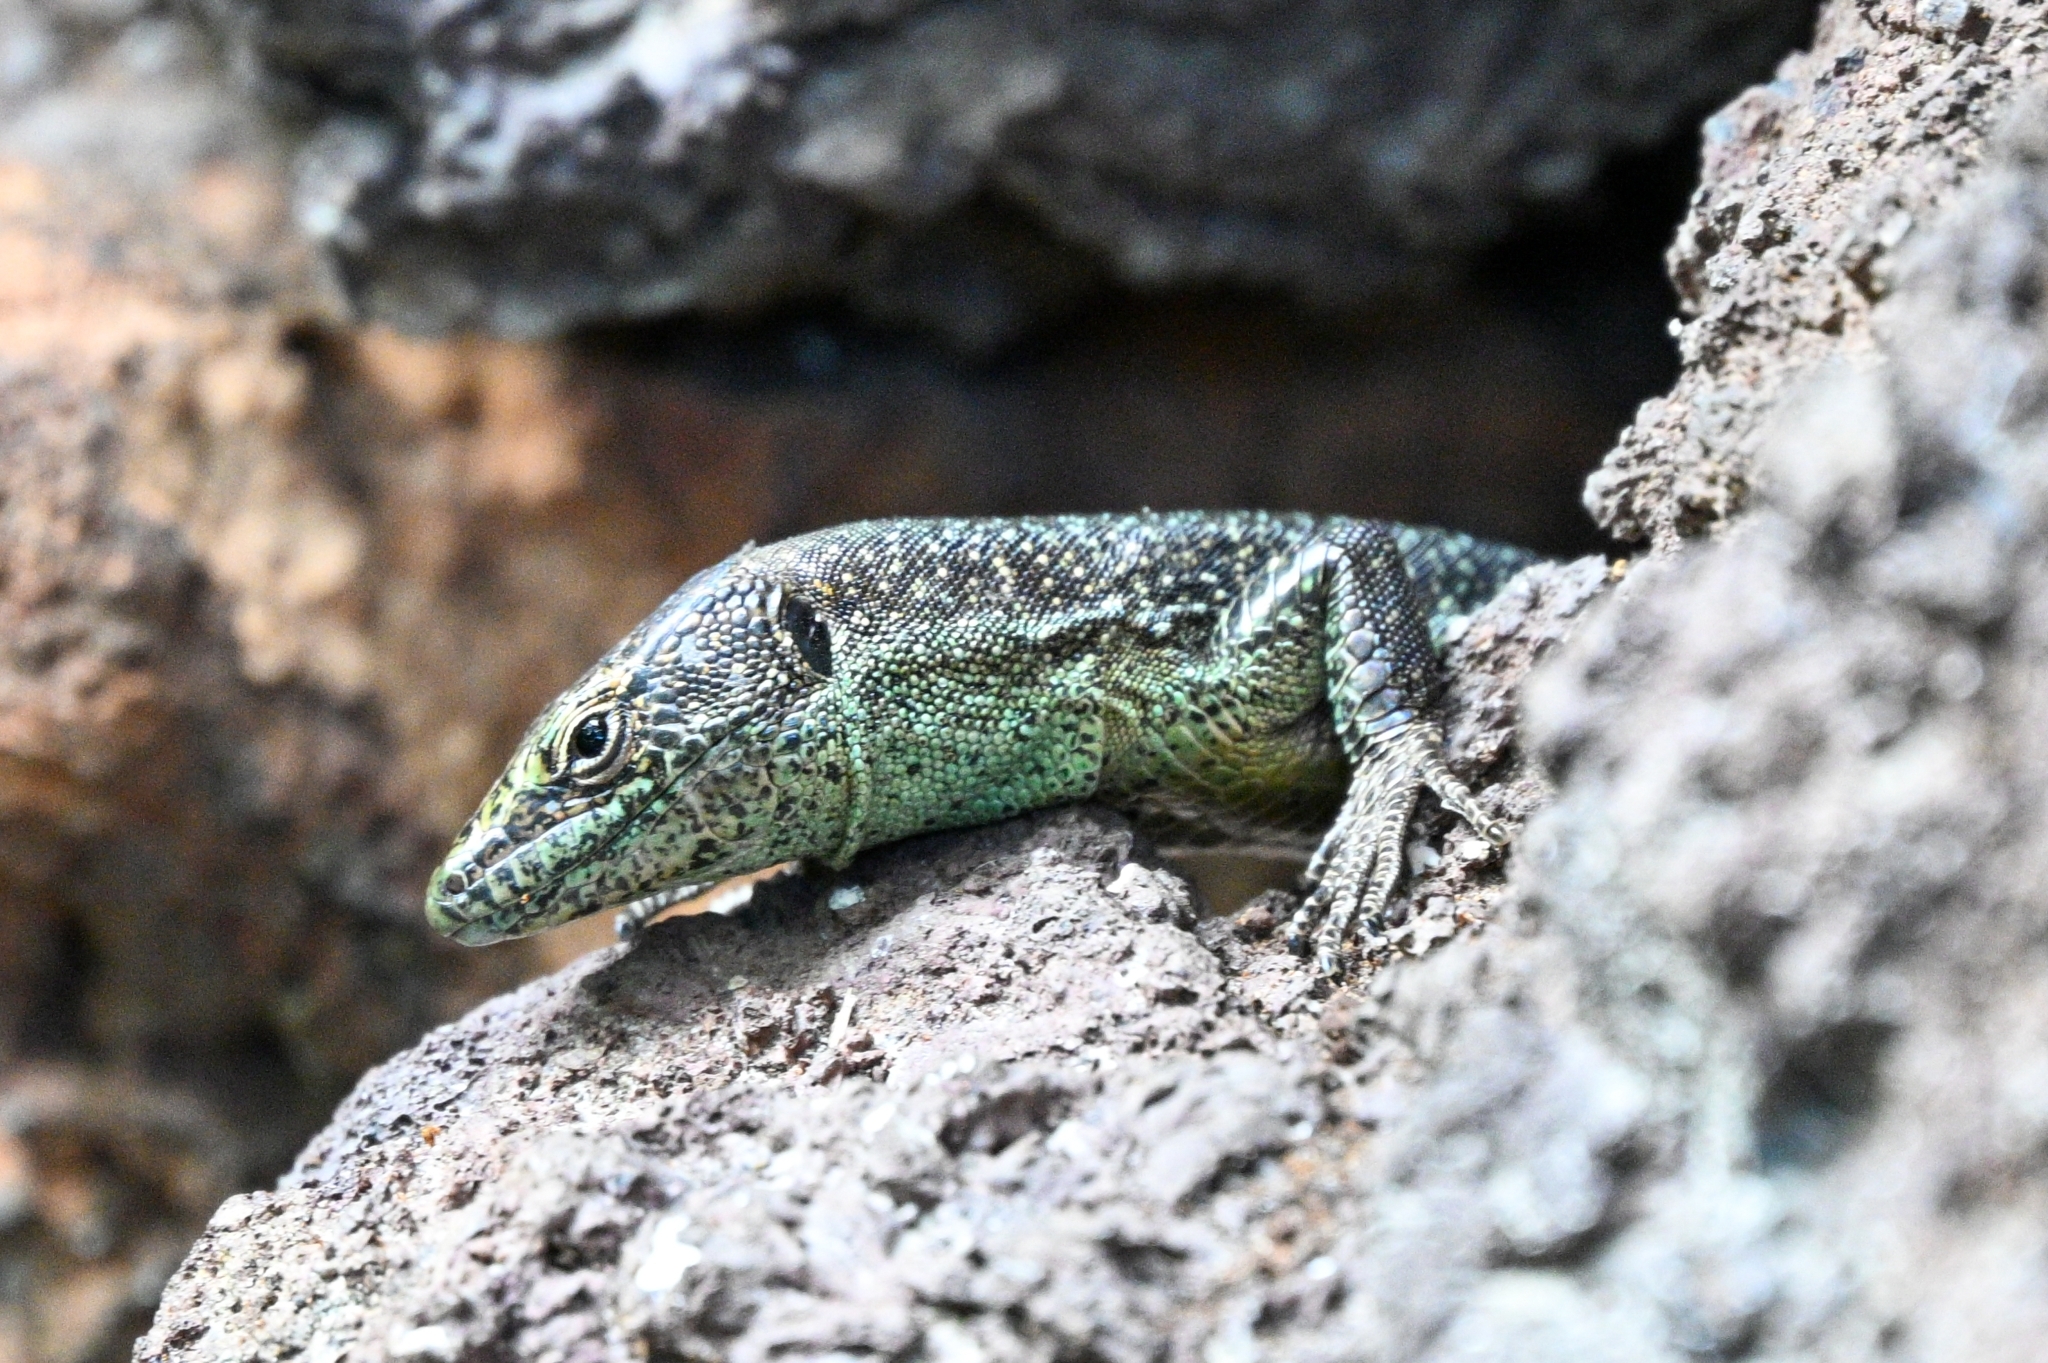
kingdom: Animalia
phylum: Chordata
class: Squamata
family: Lacertidae
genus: Teira
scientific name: Teira dugesii
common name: Madeira lizard
